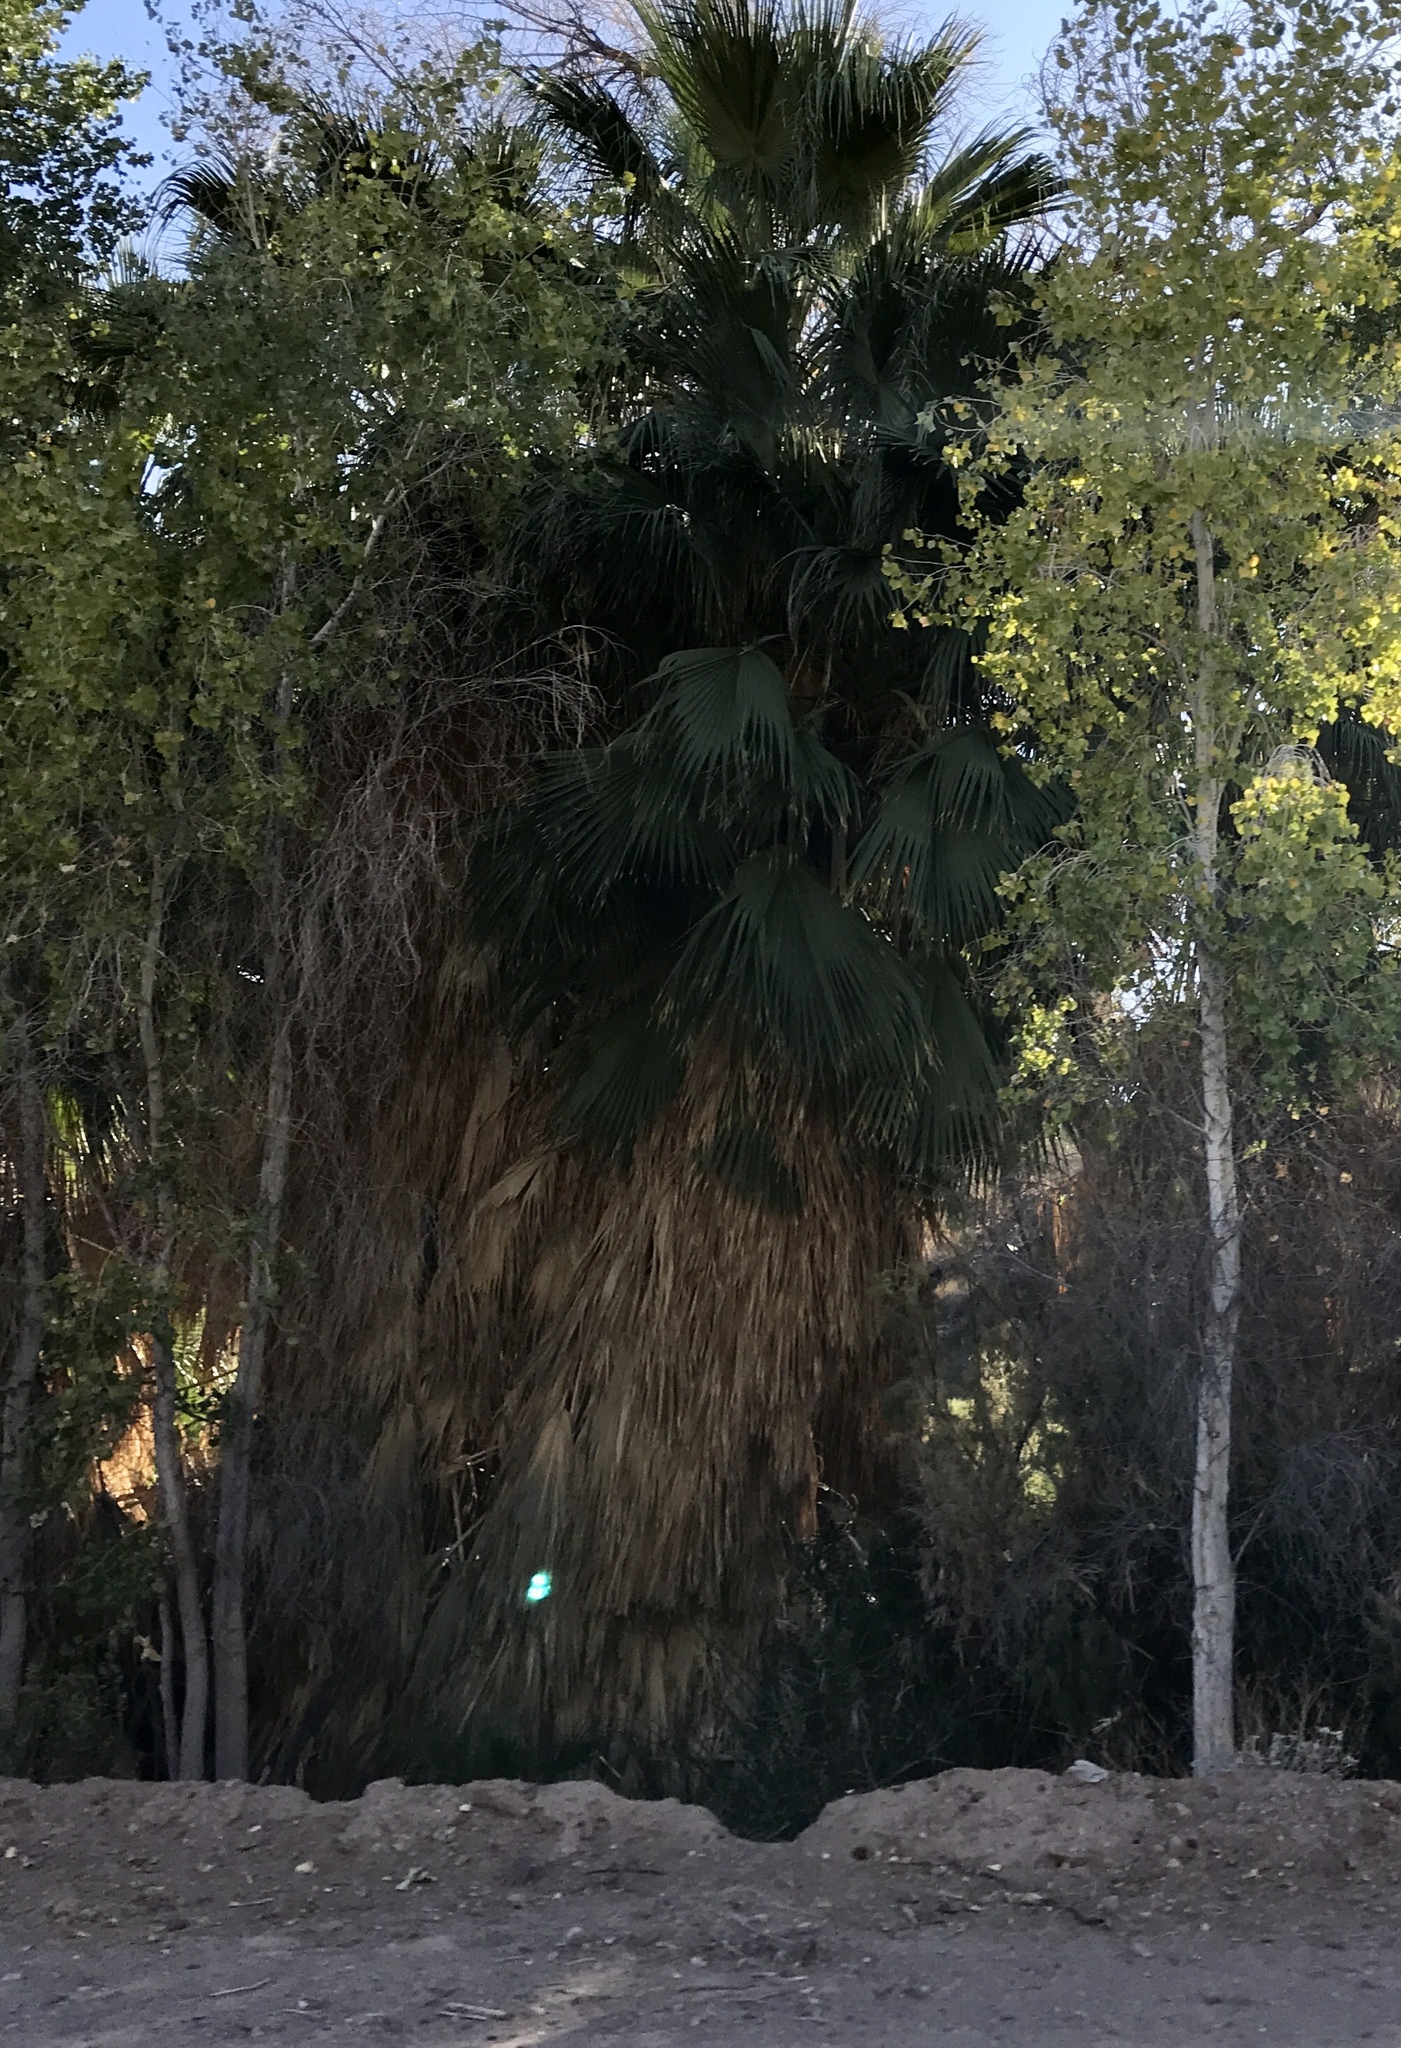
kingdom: Plantae
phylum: Tracheophyta
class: Liliopsida
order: Arecales
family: Arecaceae
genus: Washingtonia
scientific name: Washingtonia filifera
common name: California fan palm
